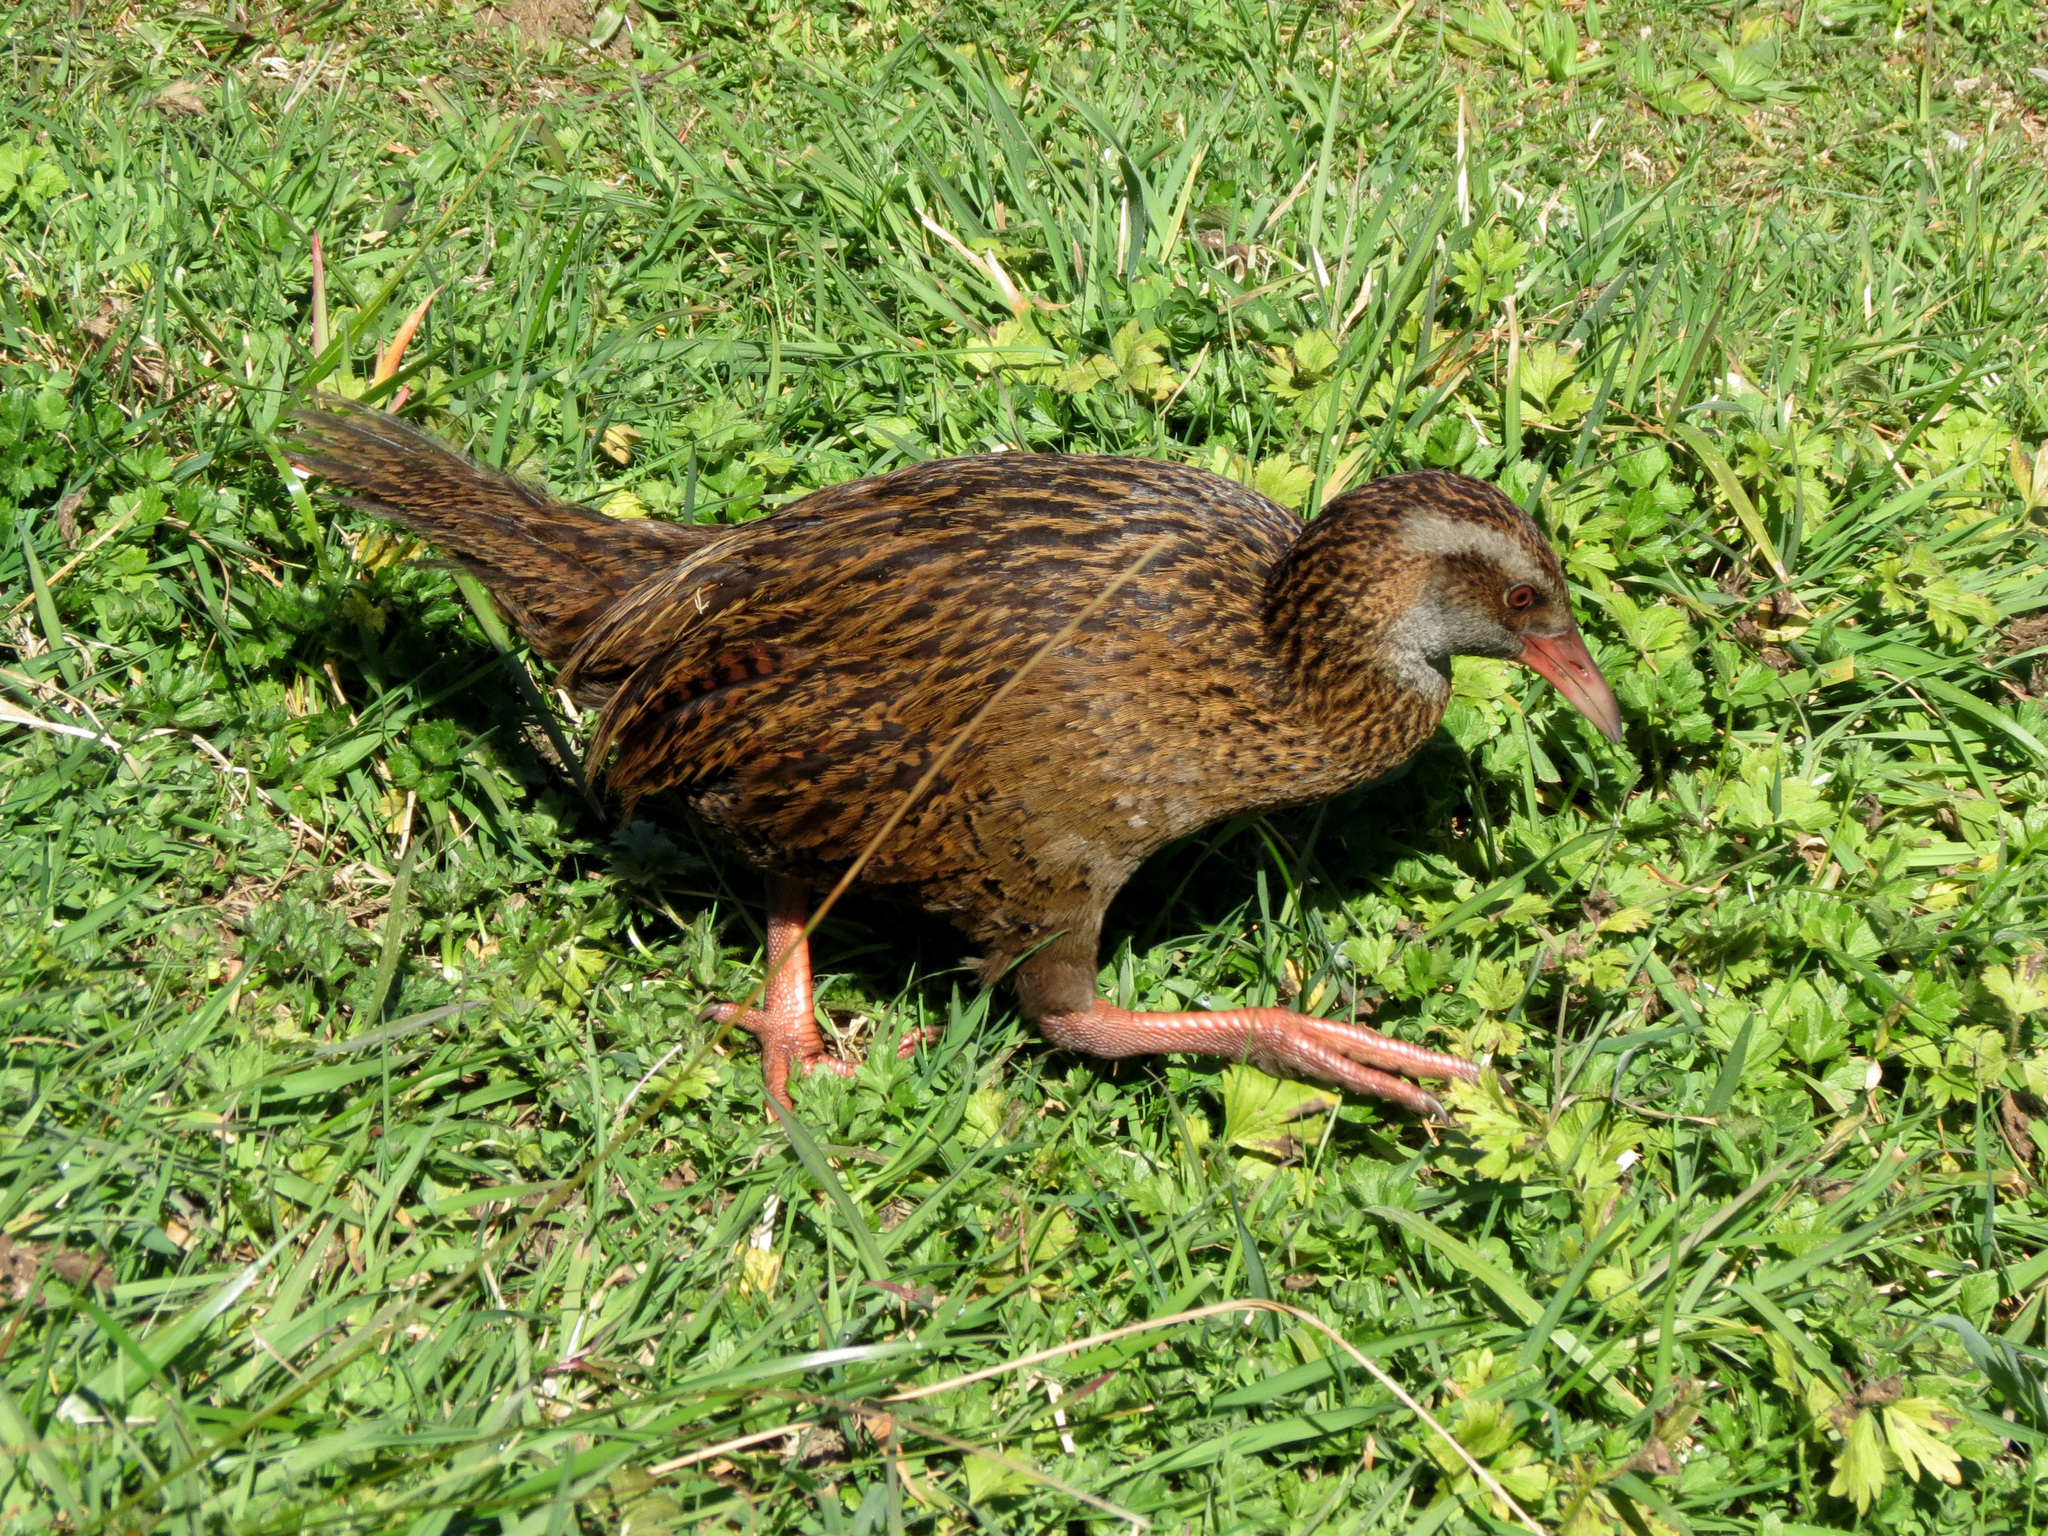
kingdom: Animalia
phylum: Chordata
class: Aves
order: Gruiformes
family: Rallidae
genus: Gallirallus
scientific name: Gallirallus australis
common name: Weka
